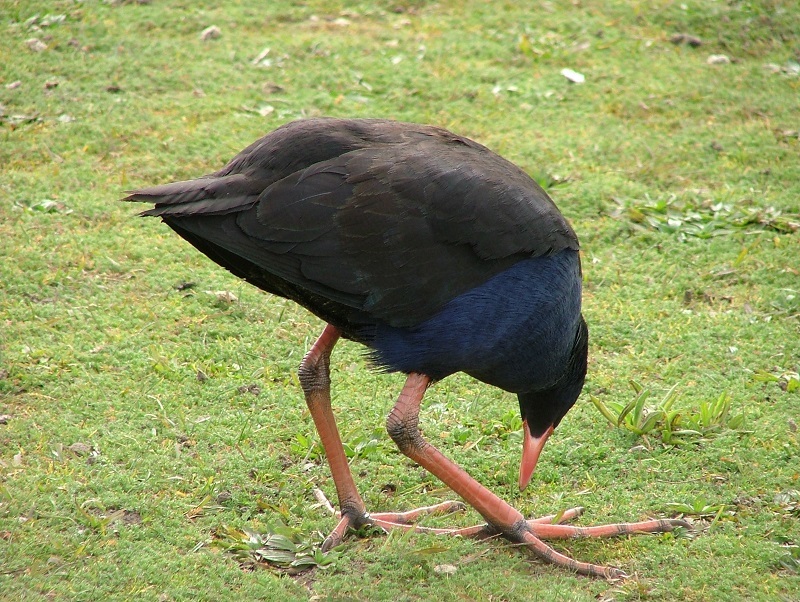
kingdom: Animalia
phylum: Chordata
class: Aves
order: Gruiformes
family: Rallidae
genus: Porphyrio
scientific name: Porphyrio melanotus
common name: Australasian swamphen
